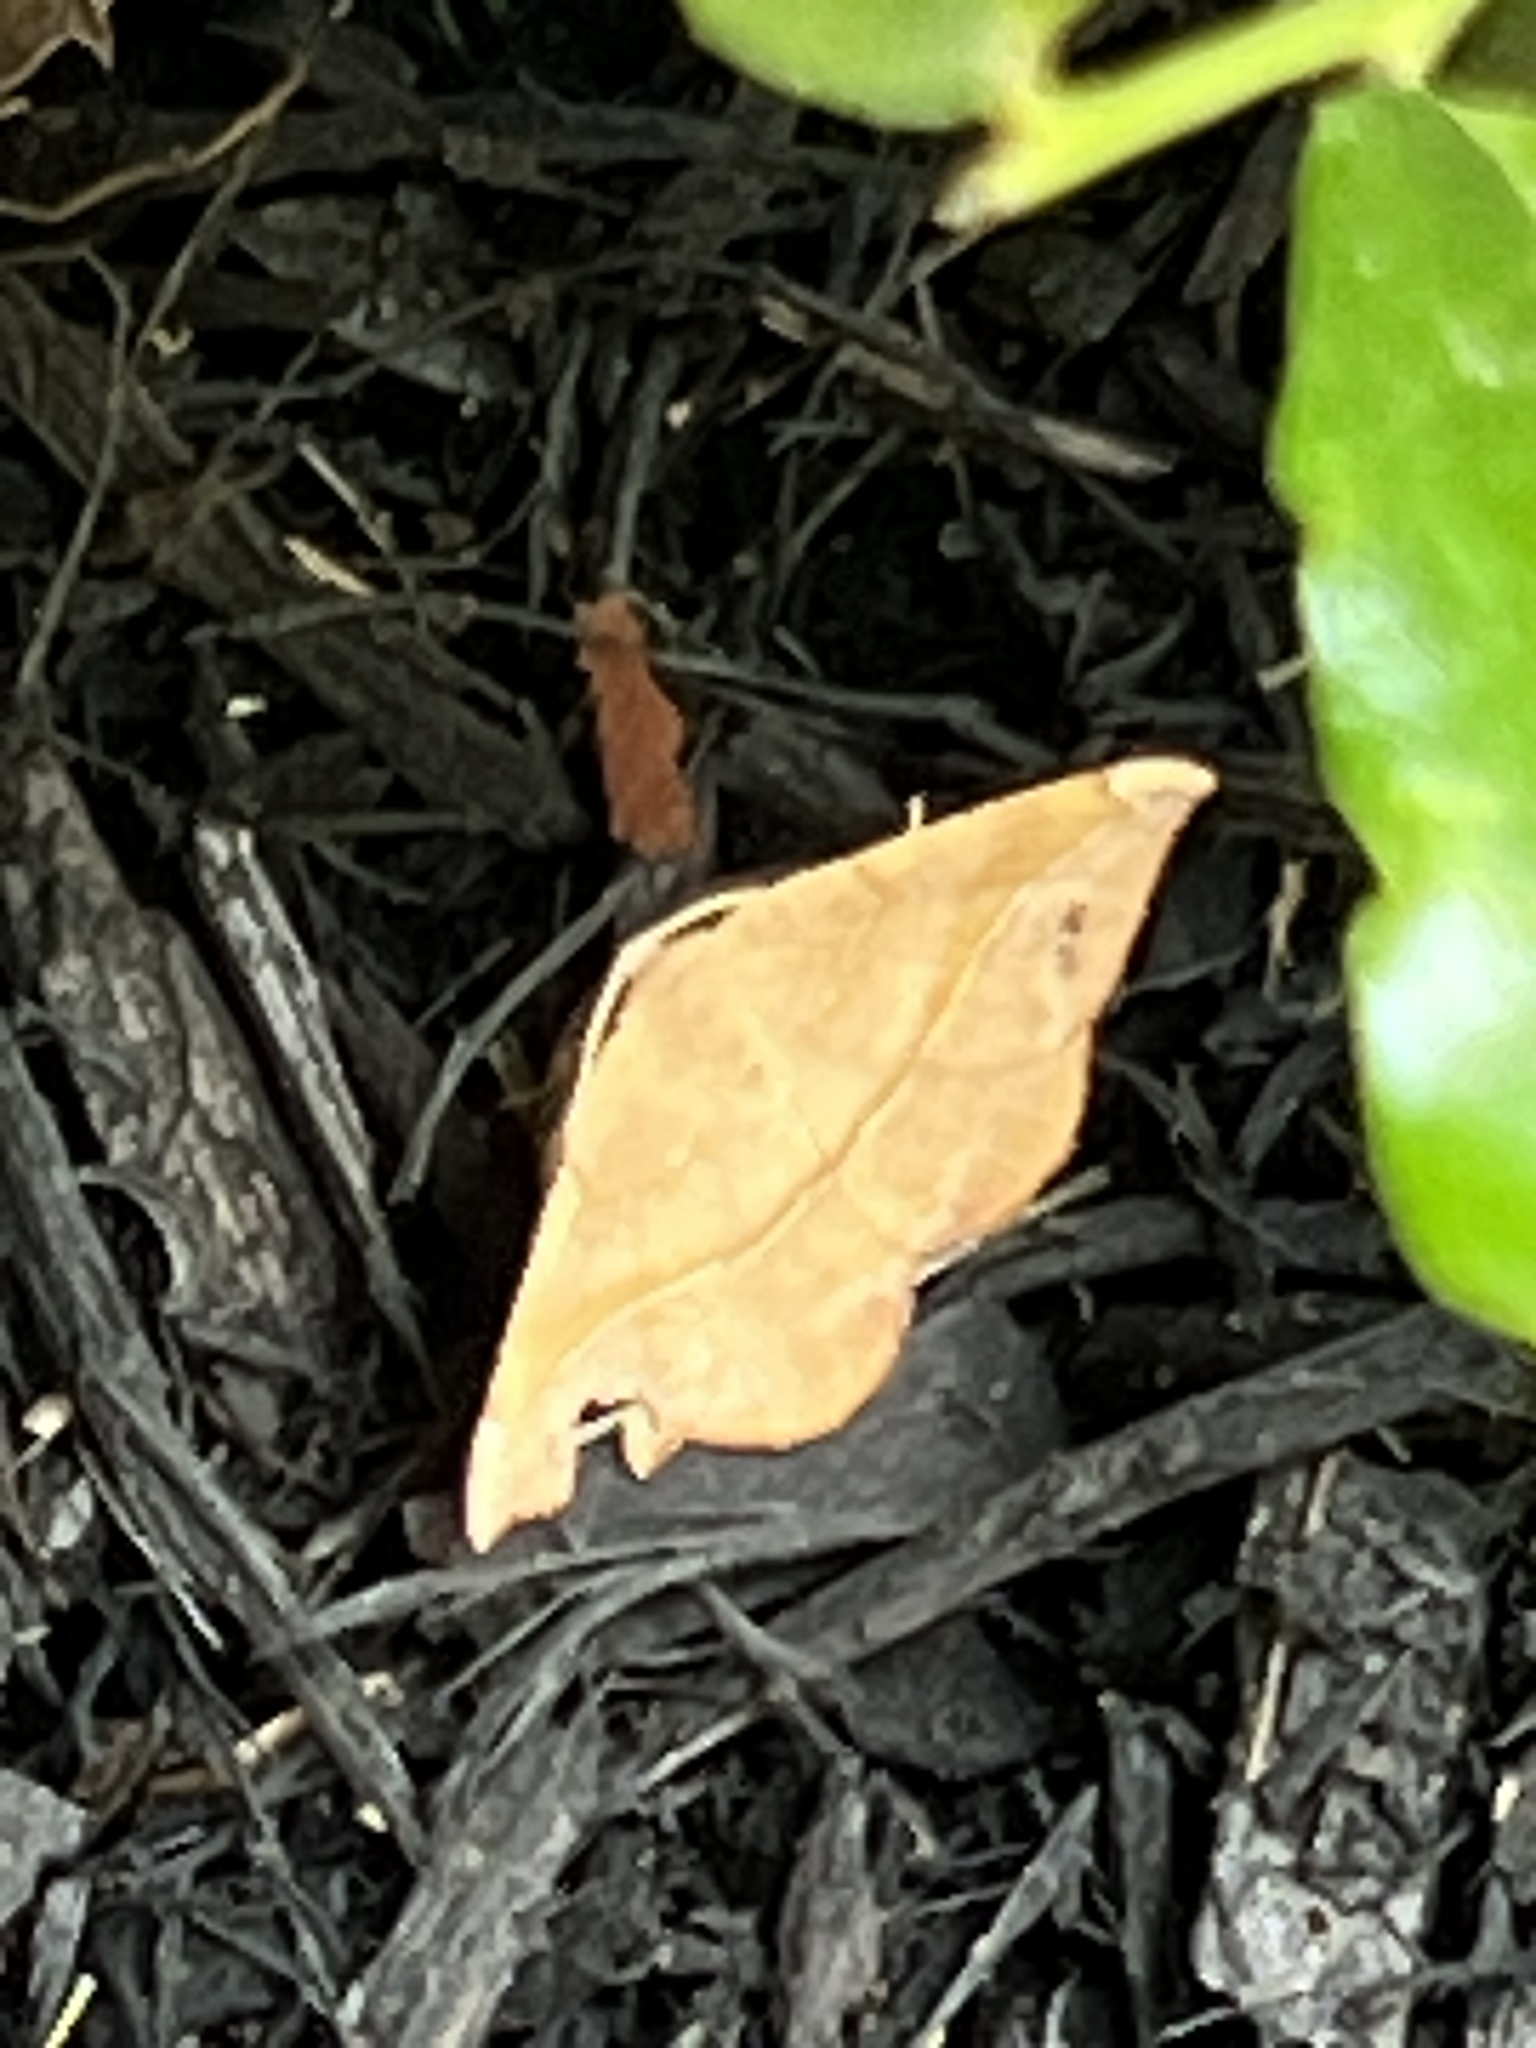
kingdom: Animalia
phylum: Arthropoda
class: Insecta
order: Lepidoptera
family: Geometridae
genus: Patalene
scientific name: Patalene olyzonaria
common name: Juniper geometer moth
